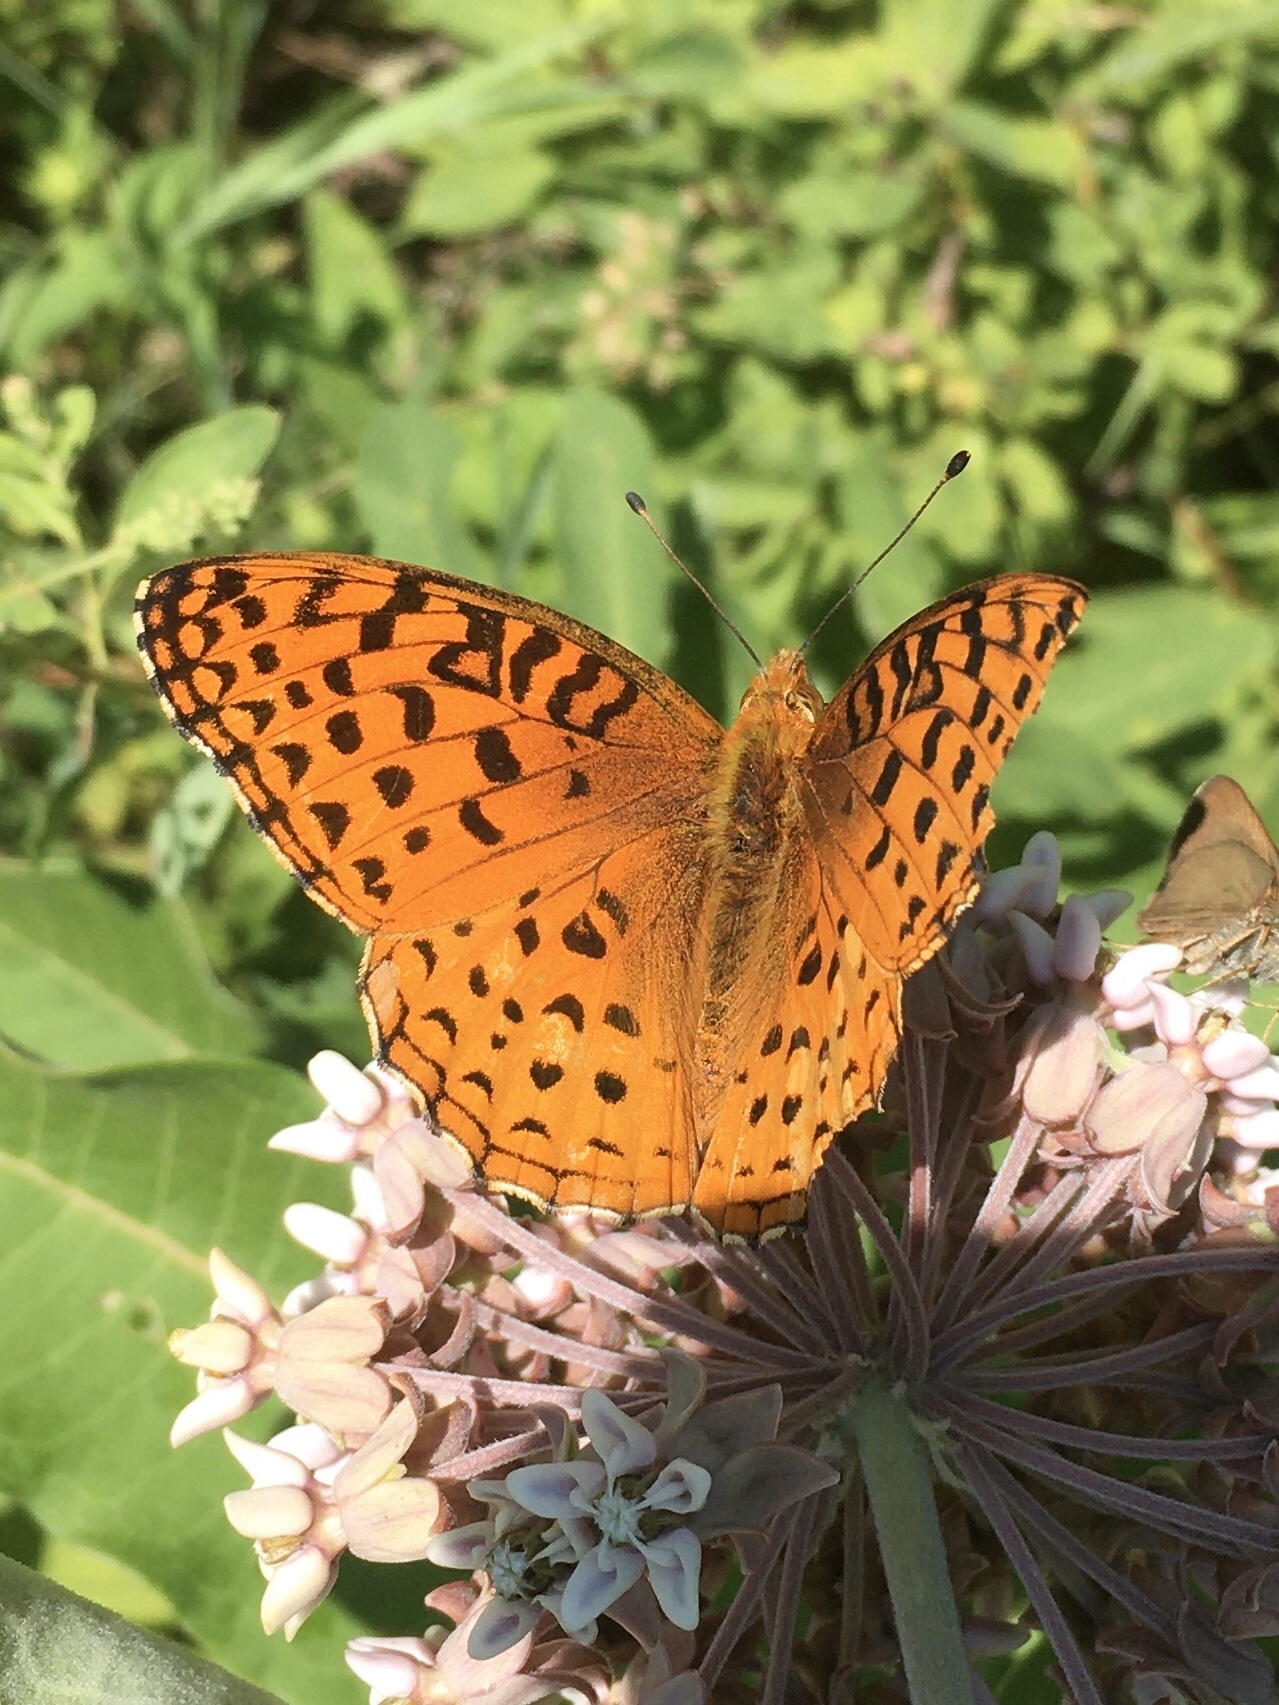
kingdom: Animalia
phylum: Arthropoda
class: Insecta
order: Lepidoptera
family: Nymphalidae
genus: Speyeria
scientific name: Speyeria aphrodite
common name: Aphrodite friitllary
